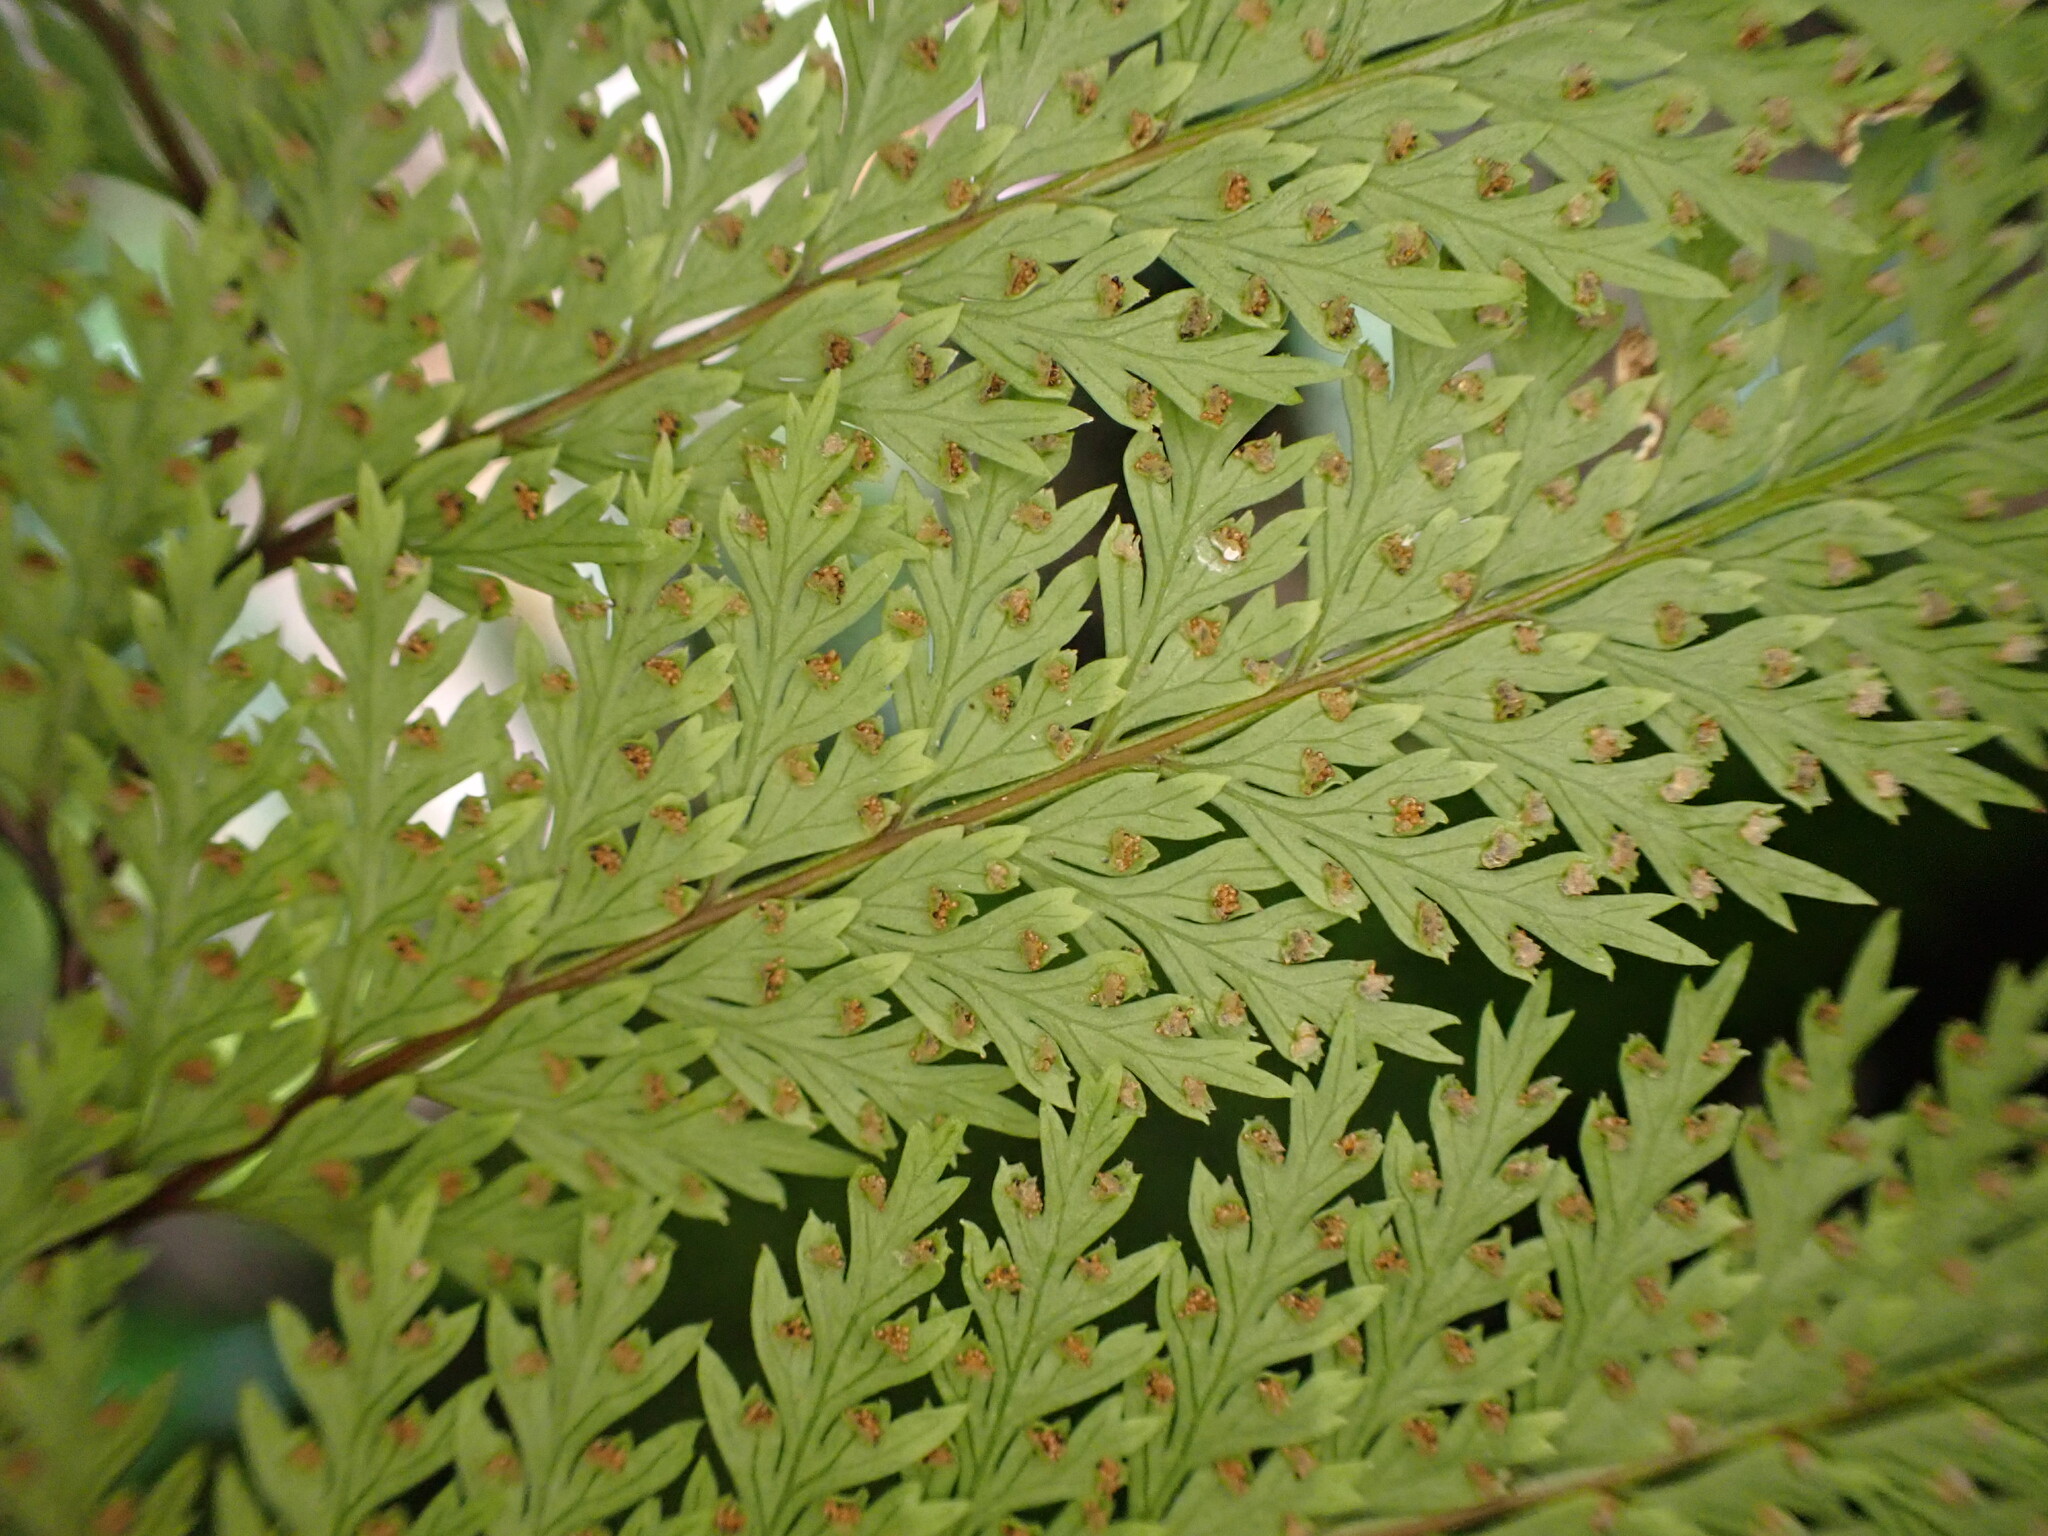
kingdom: Plantae
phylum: Tracheophyta
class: Polypodiopsida
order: Polypodiales
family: Dennstaedtiaceae
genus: Dennstaedtia
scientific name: Dennstaedtia novae-zelandiae
